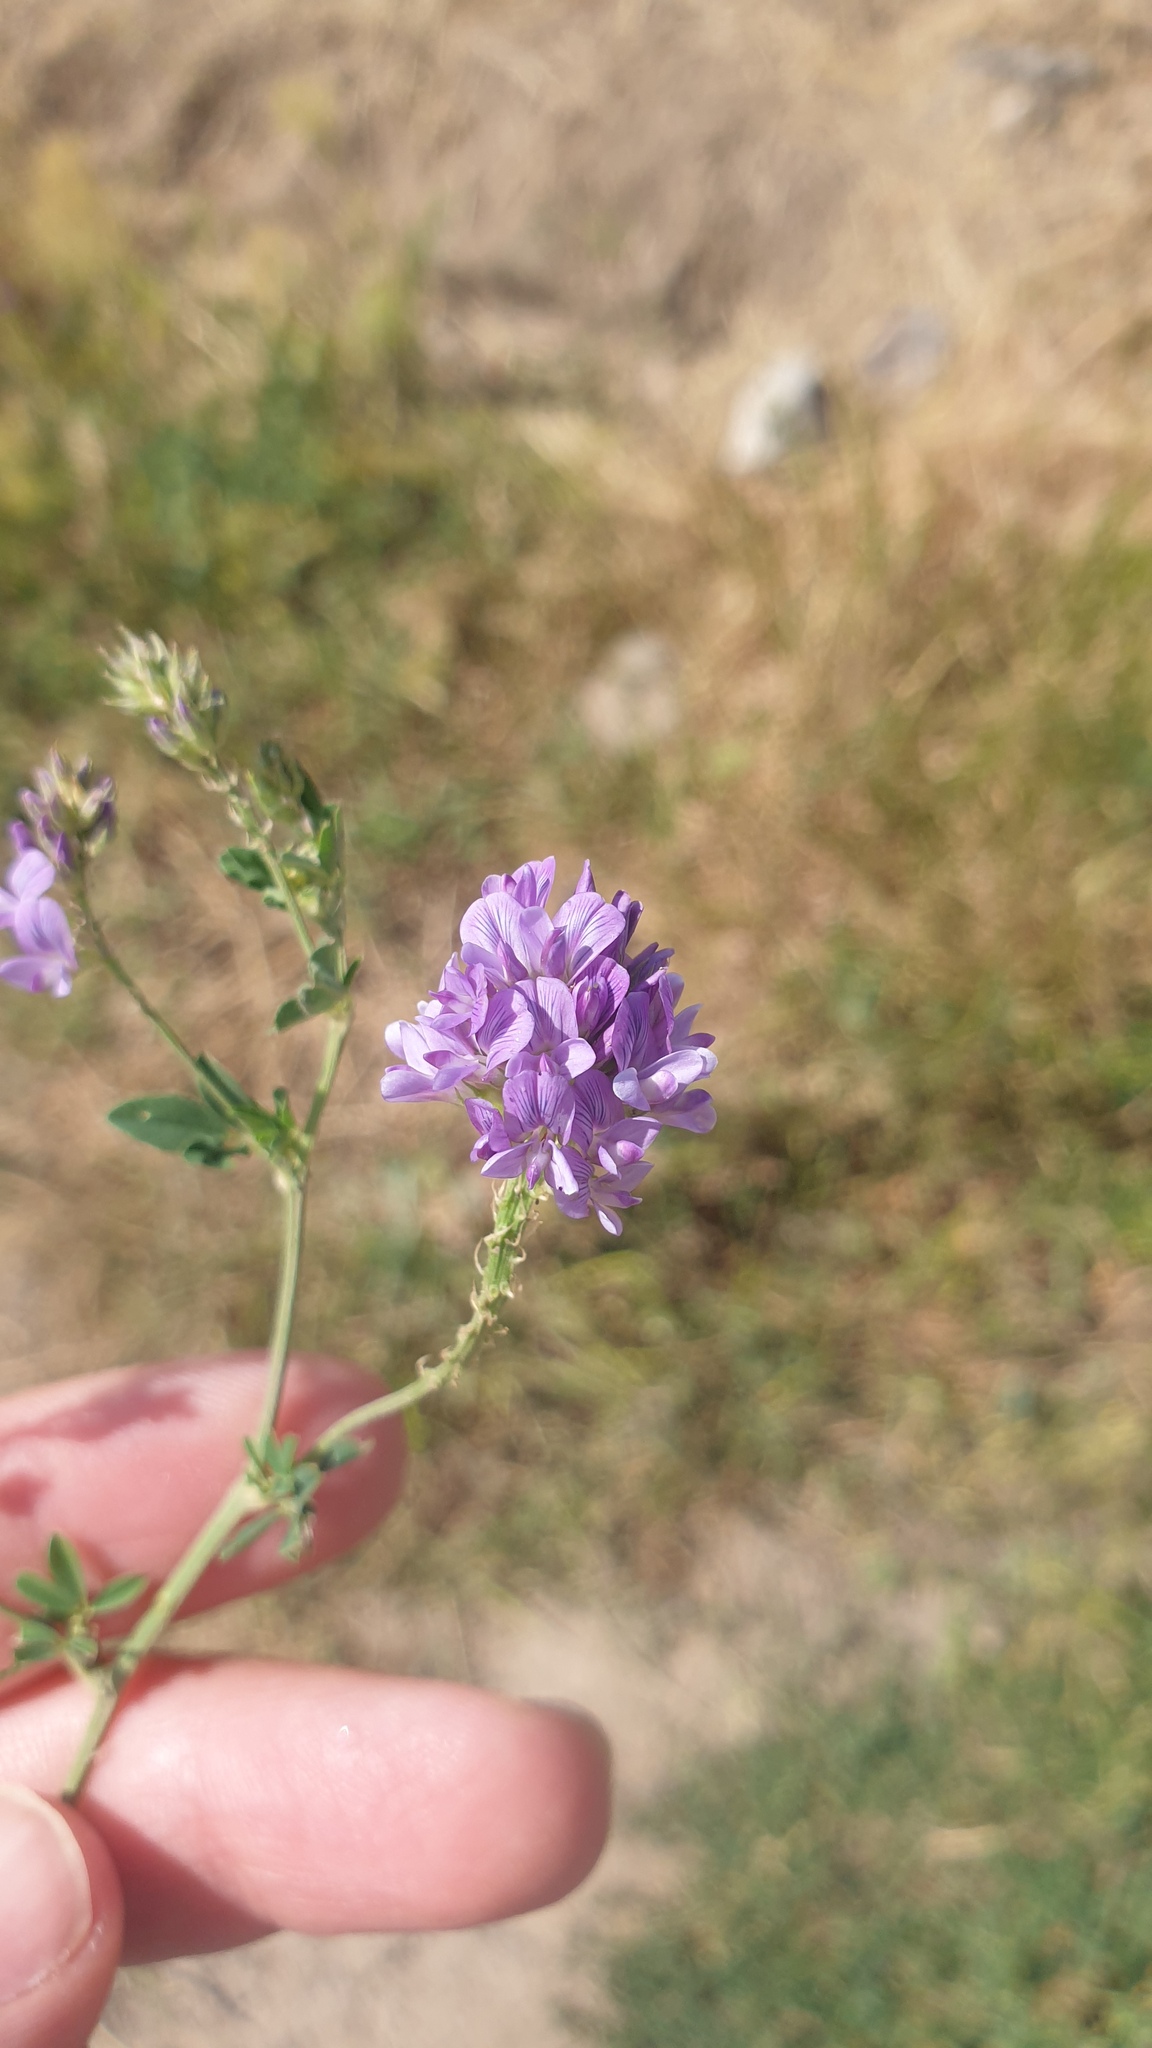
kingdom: Plantae
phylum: Tracheophyta
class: Magnoliopsida
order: Fabales
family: Fabaceae
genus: Medicago
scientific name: Medicago sativa
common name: Alfalfa
